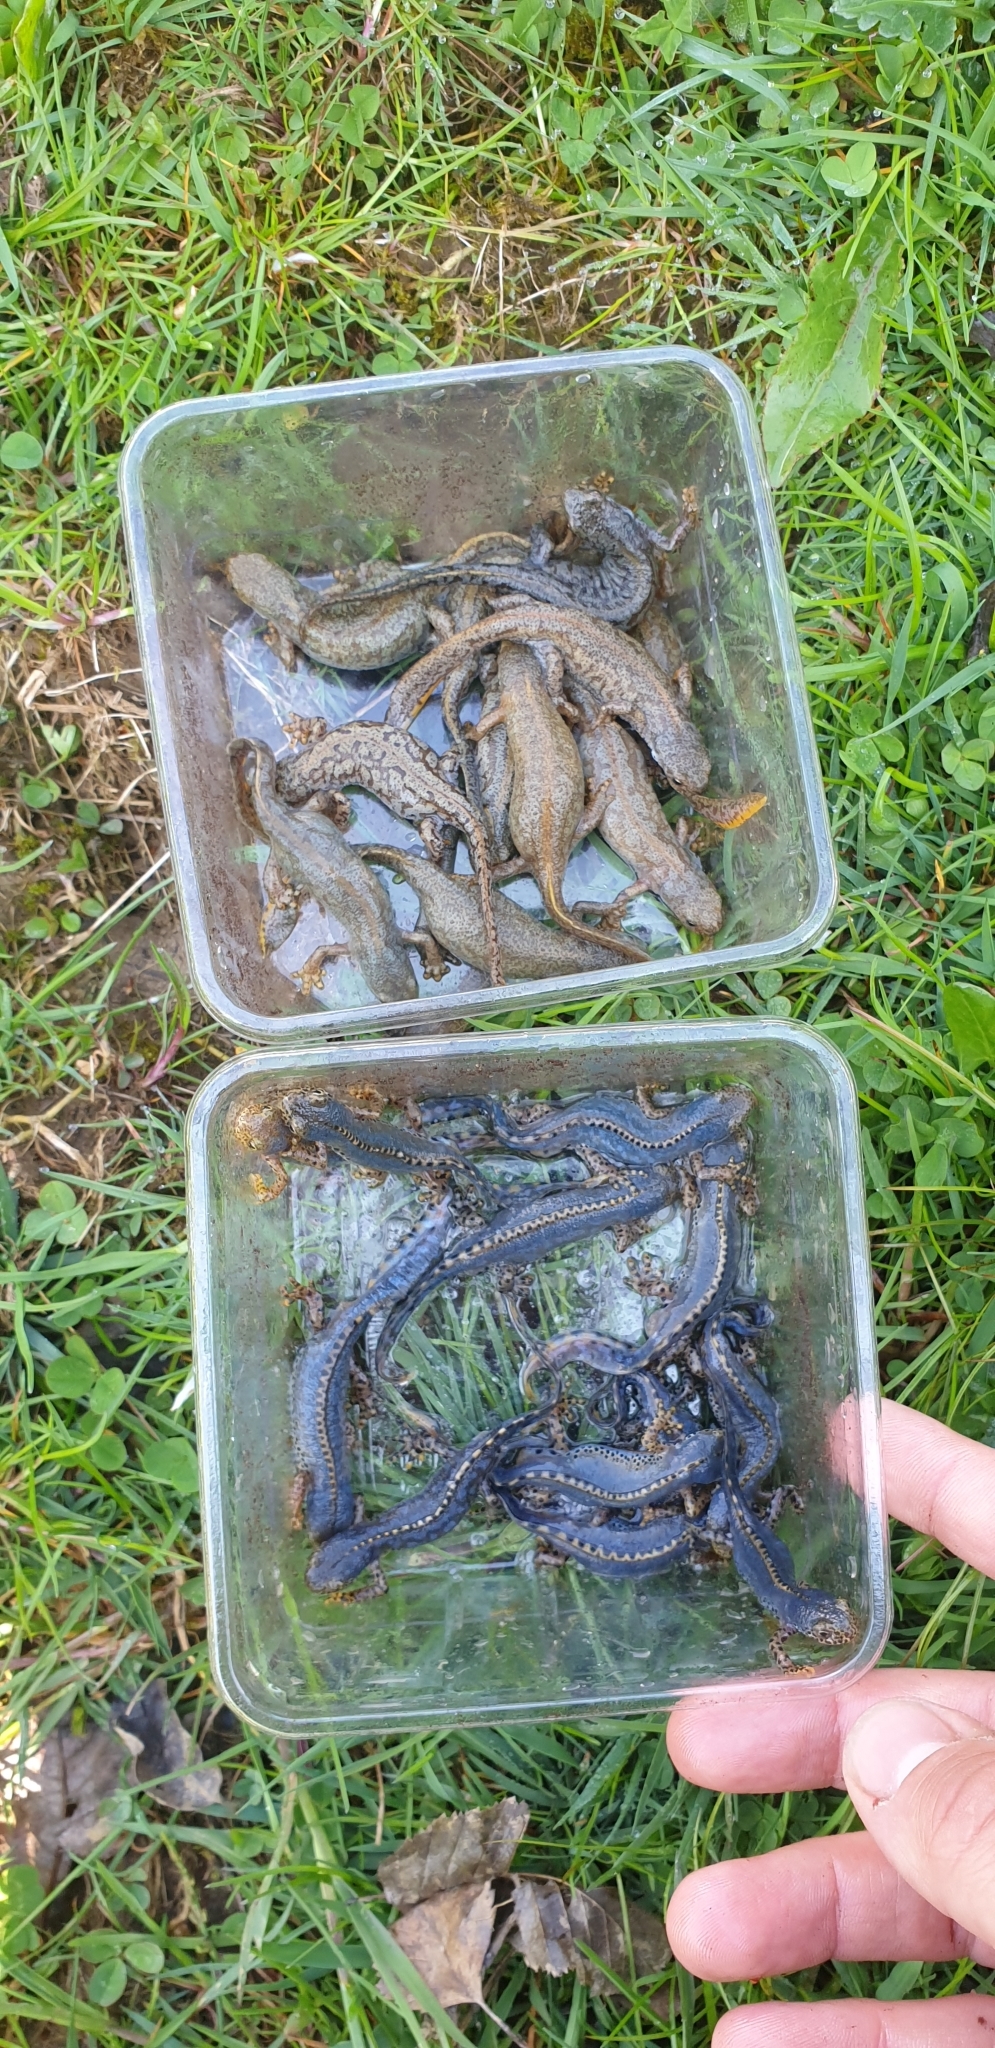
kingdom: Animalia
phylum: Chordata
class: Amphibia
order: Caudata
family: Salamandridae
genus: Ichthyosaura
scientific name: Ichthyosaura alpestris
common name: Alpine newt
